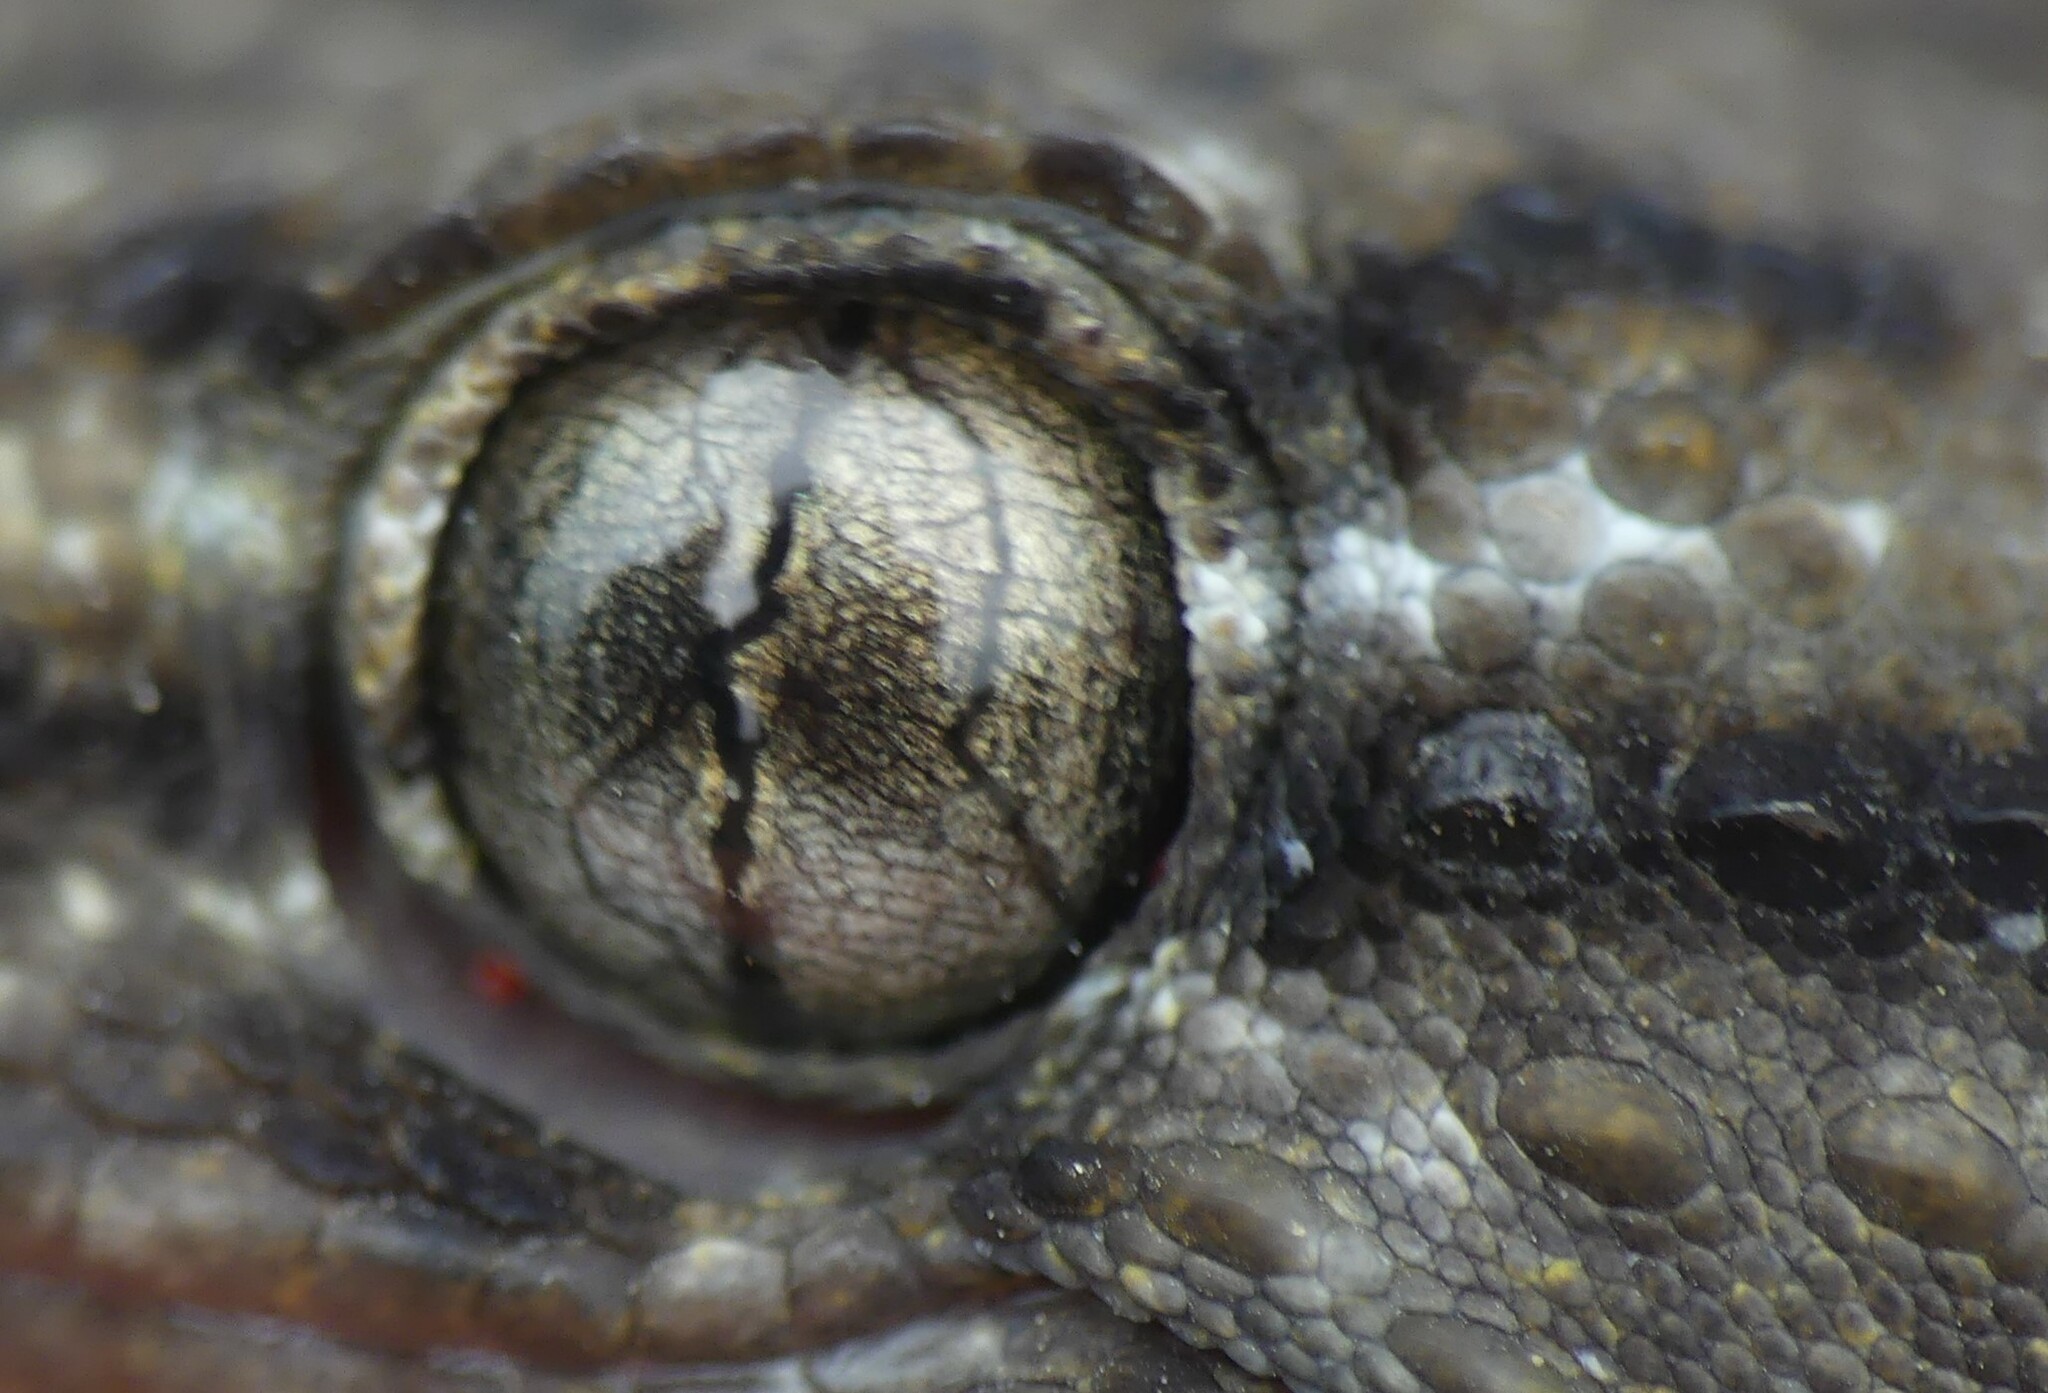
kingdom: Animalia
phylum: Chordata
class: Squamata
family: Phyllodactylidae
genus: Tarentola
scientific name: Tarentola mauritanica
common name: Moorish gecko
